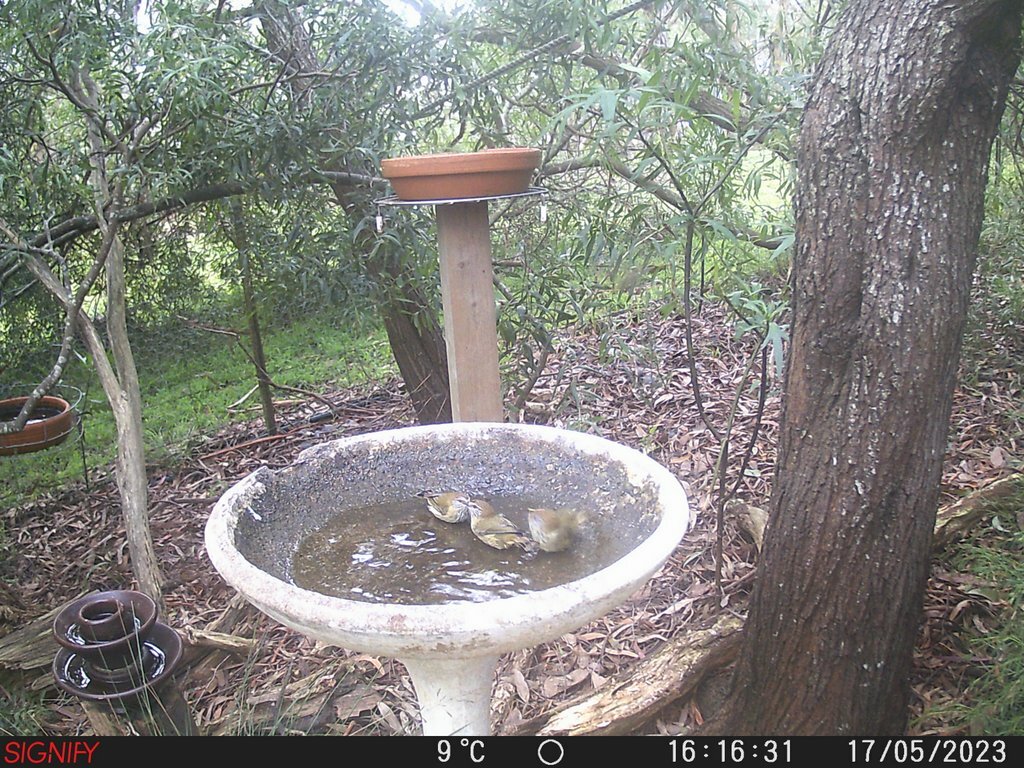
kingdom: Animalia
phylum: Chordata
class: Aves
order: Passeriformes
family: Acanthizidae
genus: Acanthiza
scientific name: Acanthiza lineata
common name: Striated thornbill
